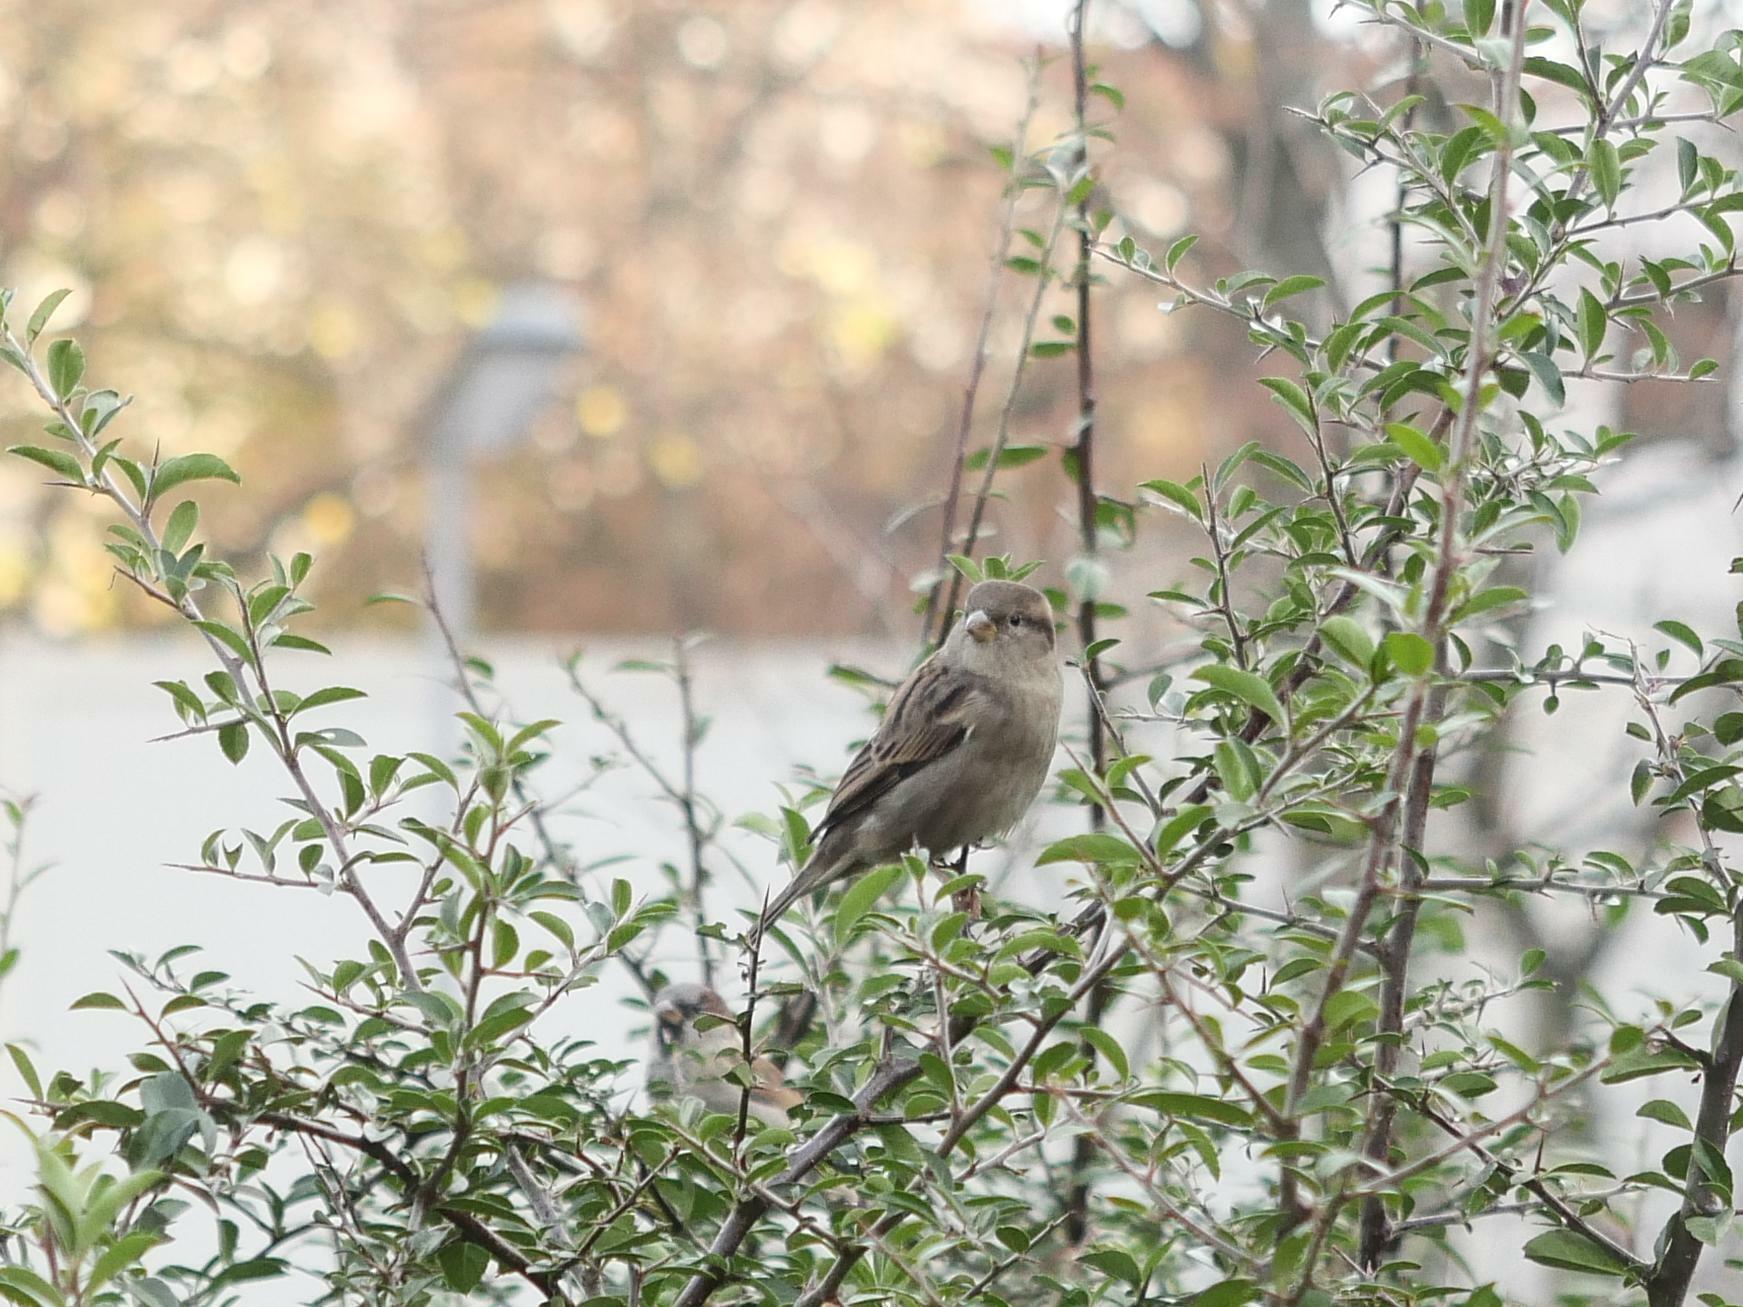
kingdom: Animalia
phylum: Chordata
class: Aves
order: Passeriformes
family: Passeridae
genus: Passer
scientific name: Passer domesticus
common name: House sparrow
